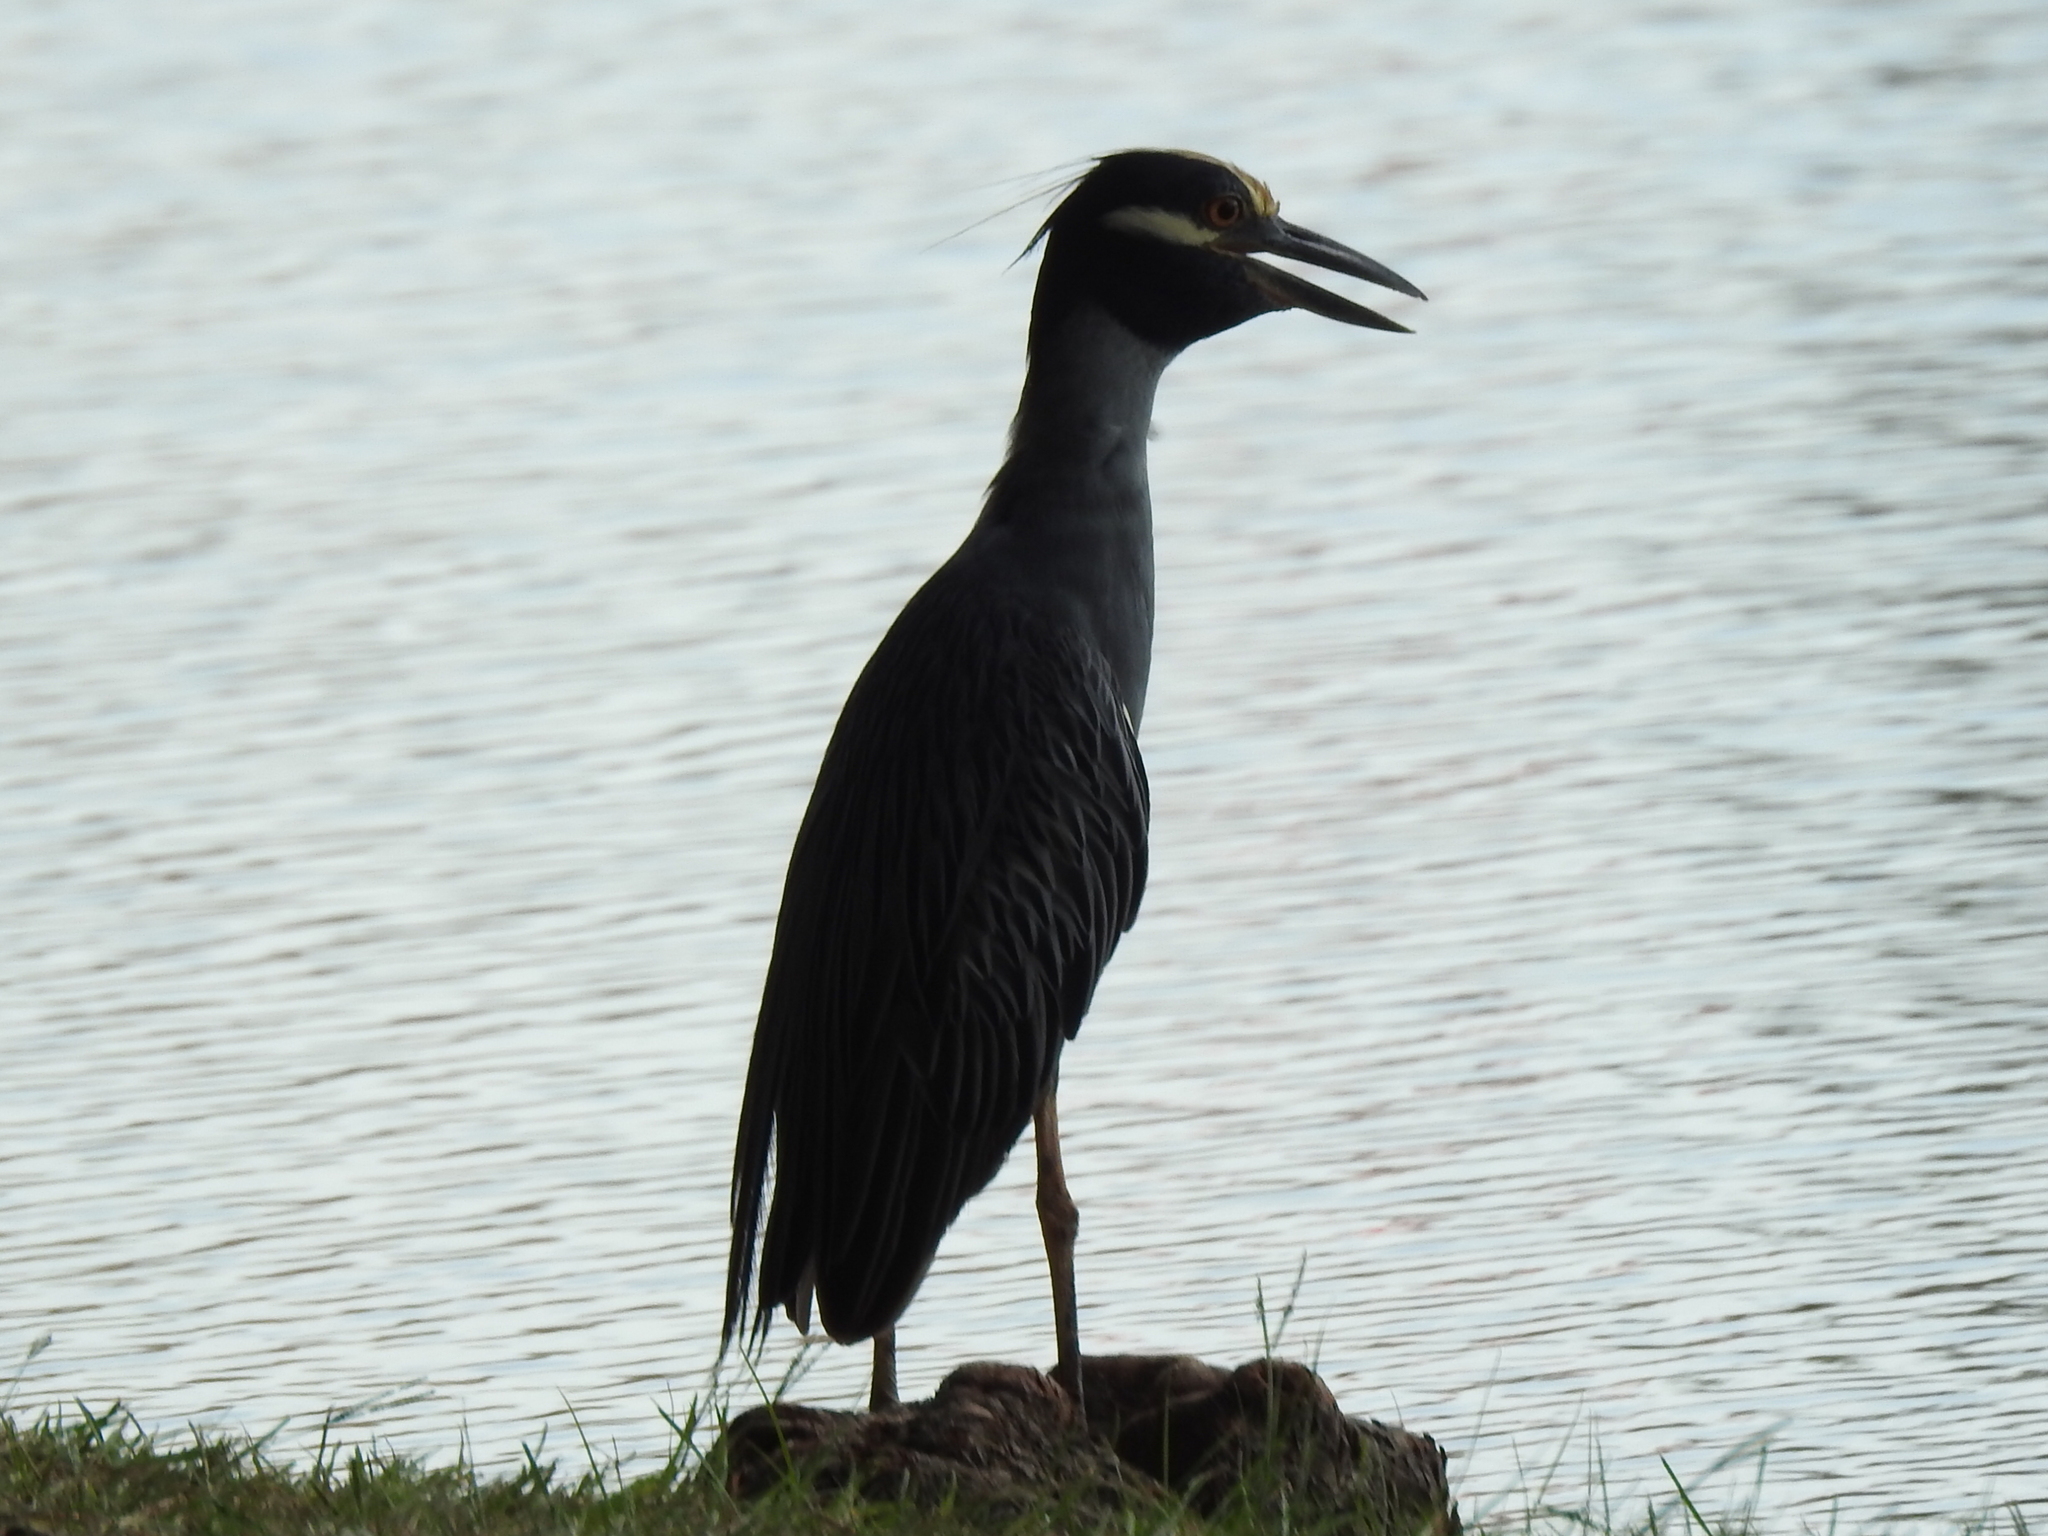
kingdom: Animalia
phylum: Chordata
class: Aves
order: Pelecaniformes
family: Ardeidae
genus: Nyctanassa
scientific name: Nyctanassa violacea
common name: Yellow-crowned night heron
